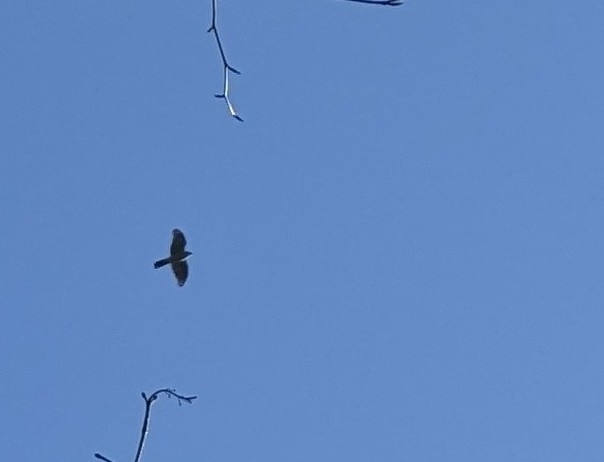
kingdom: Animalia
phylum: Chordata
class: Aves
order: Accipitriformes
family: Accipitridae
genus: Accipiter
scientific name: Accipiter nisus
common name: Eurasian sparrowhawk
